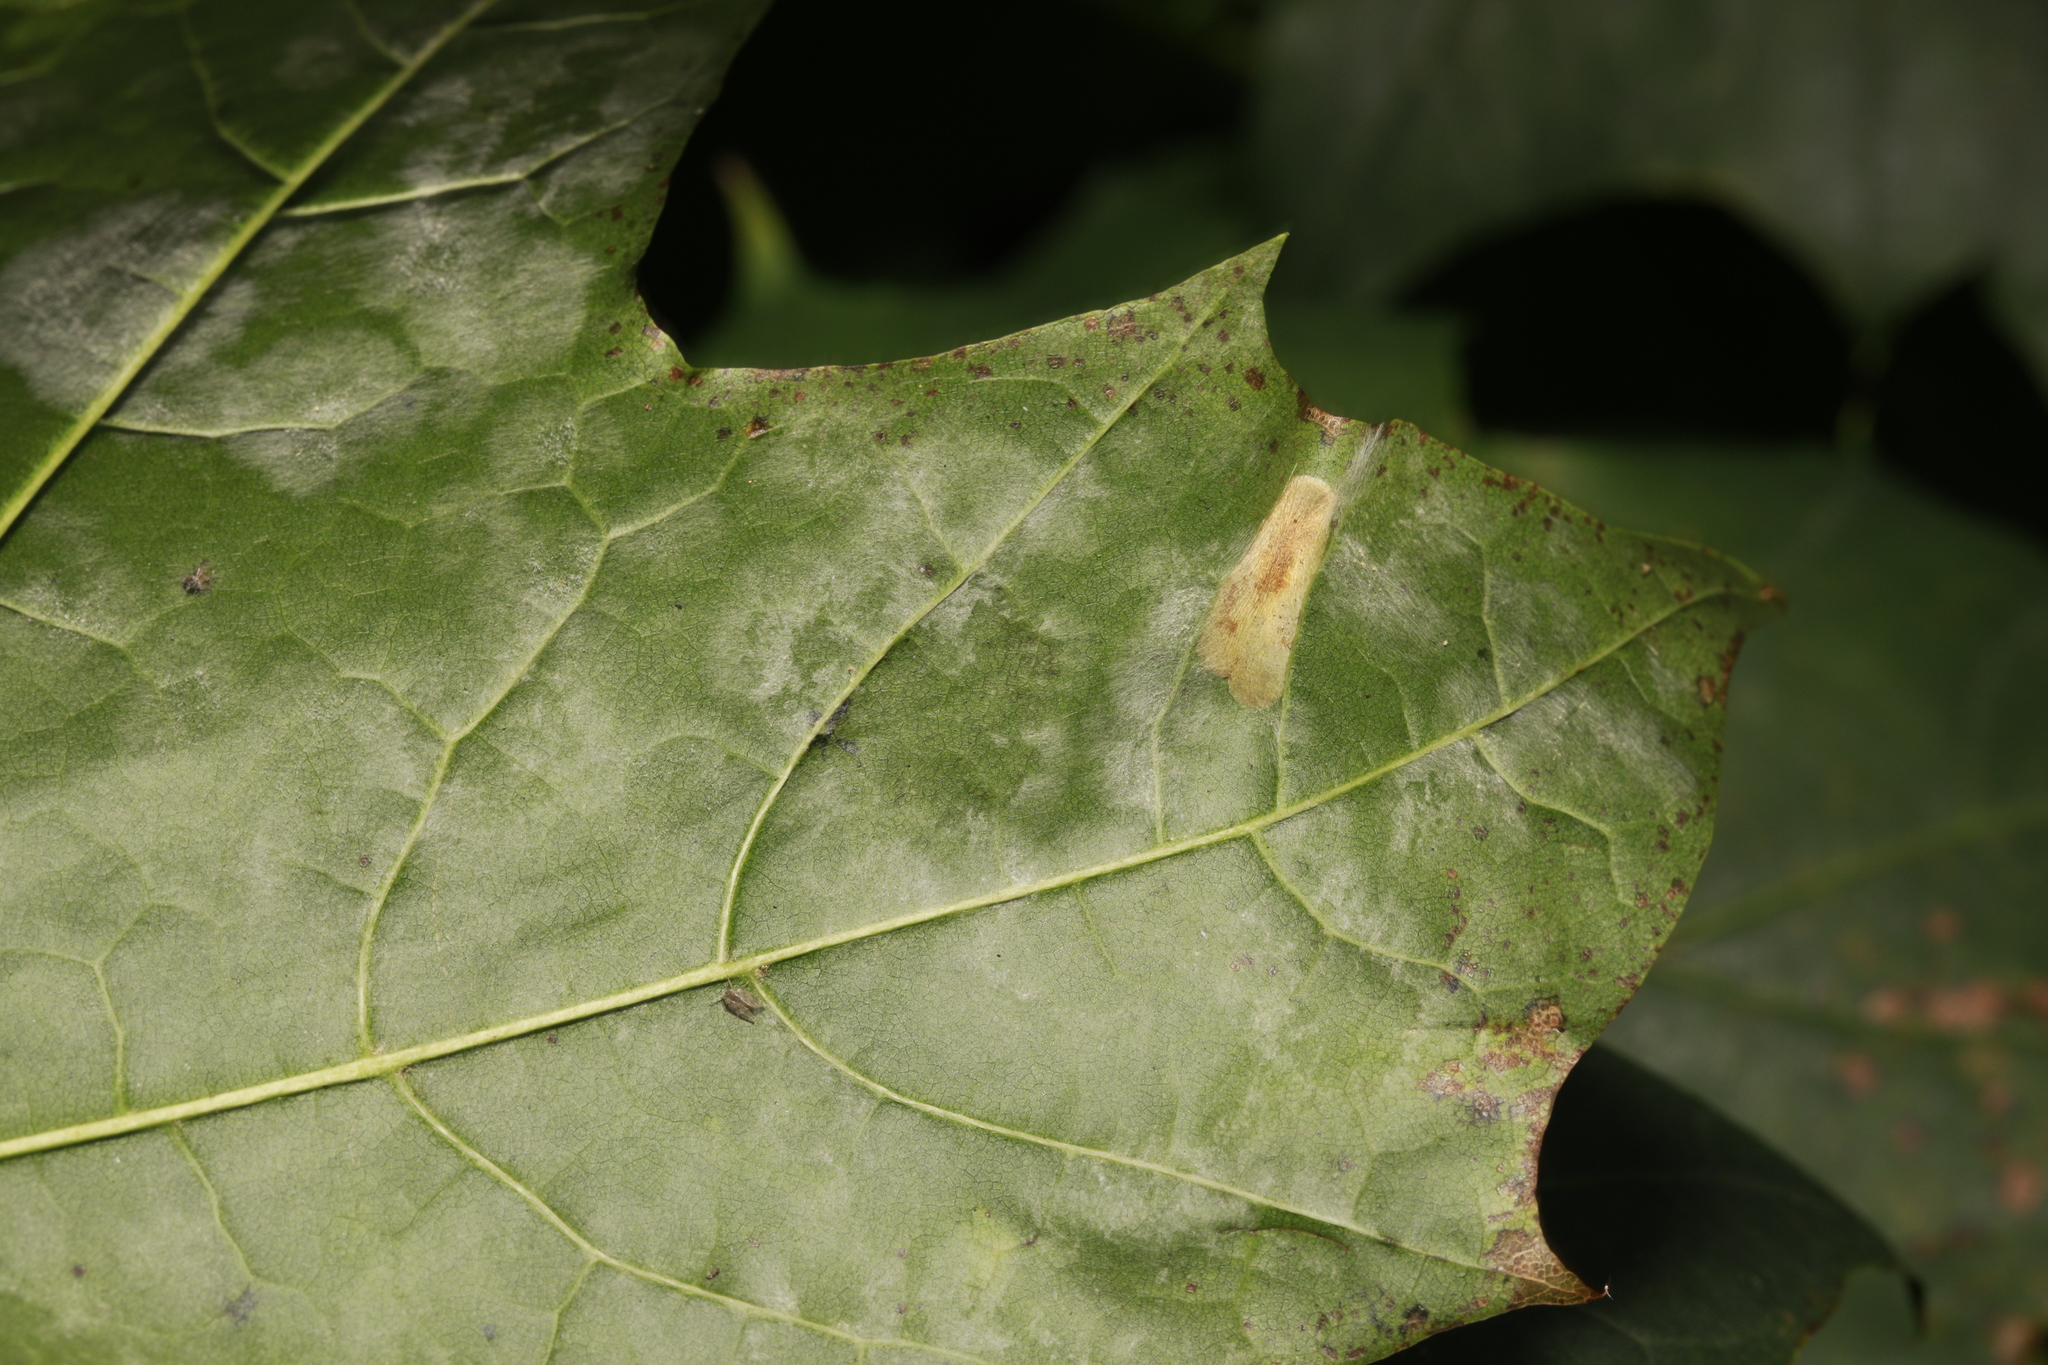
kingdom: Animalia
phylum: Arthropoda
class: Insecta
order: Lepidoptera
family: Gracillariidae
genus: Phyllonorycter
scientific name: Phyllonorycter joannisi
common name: White-bodied midget
